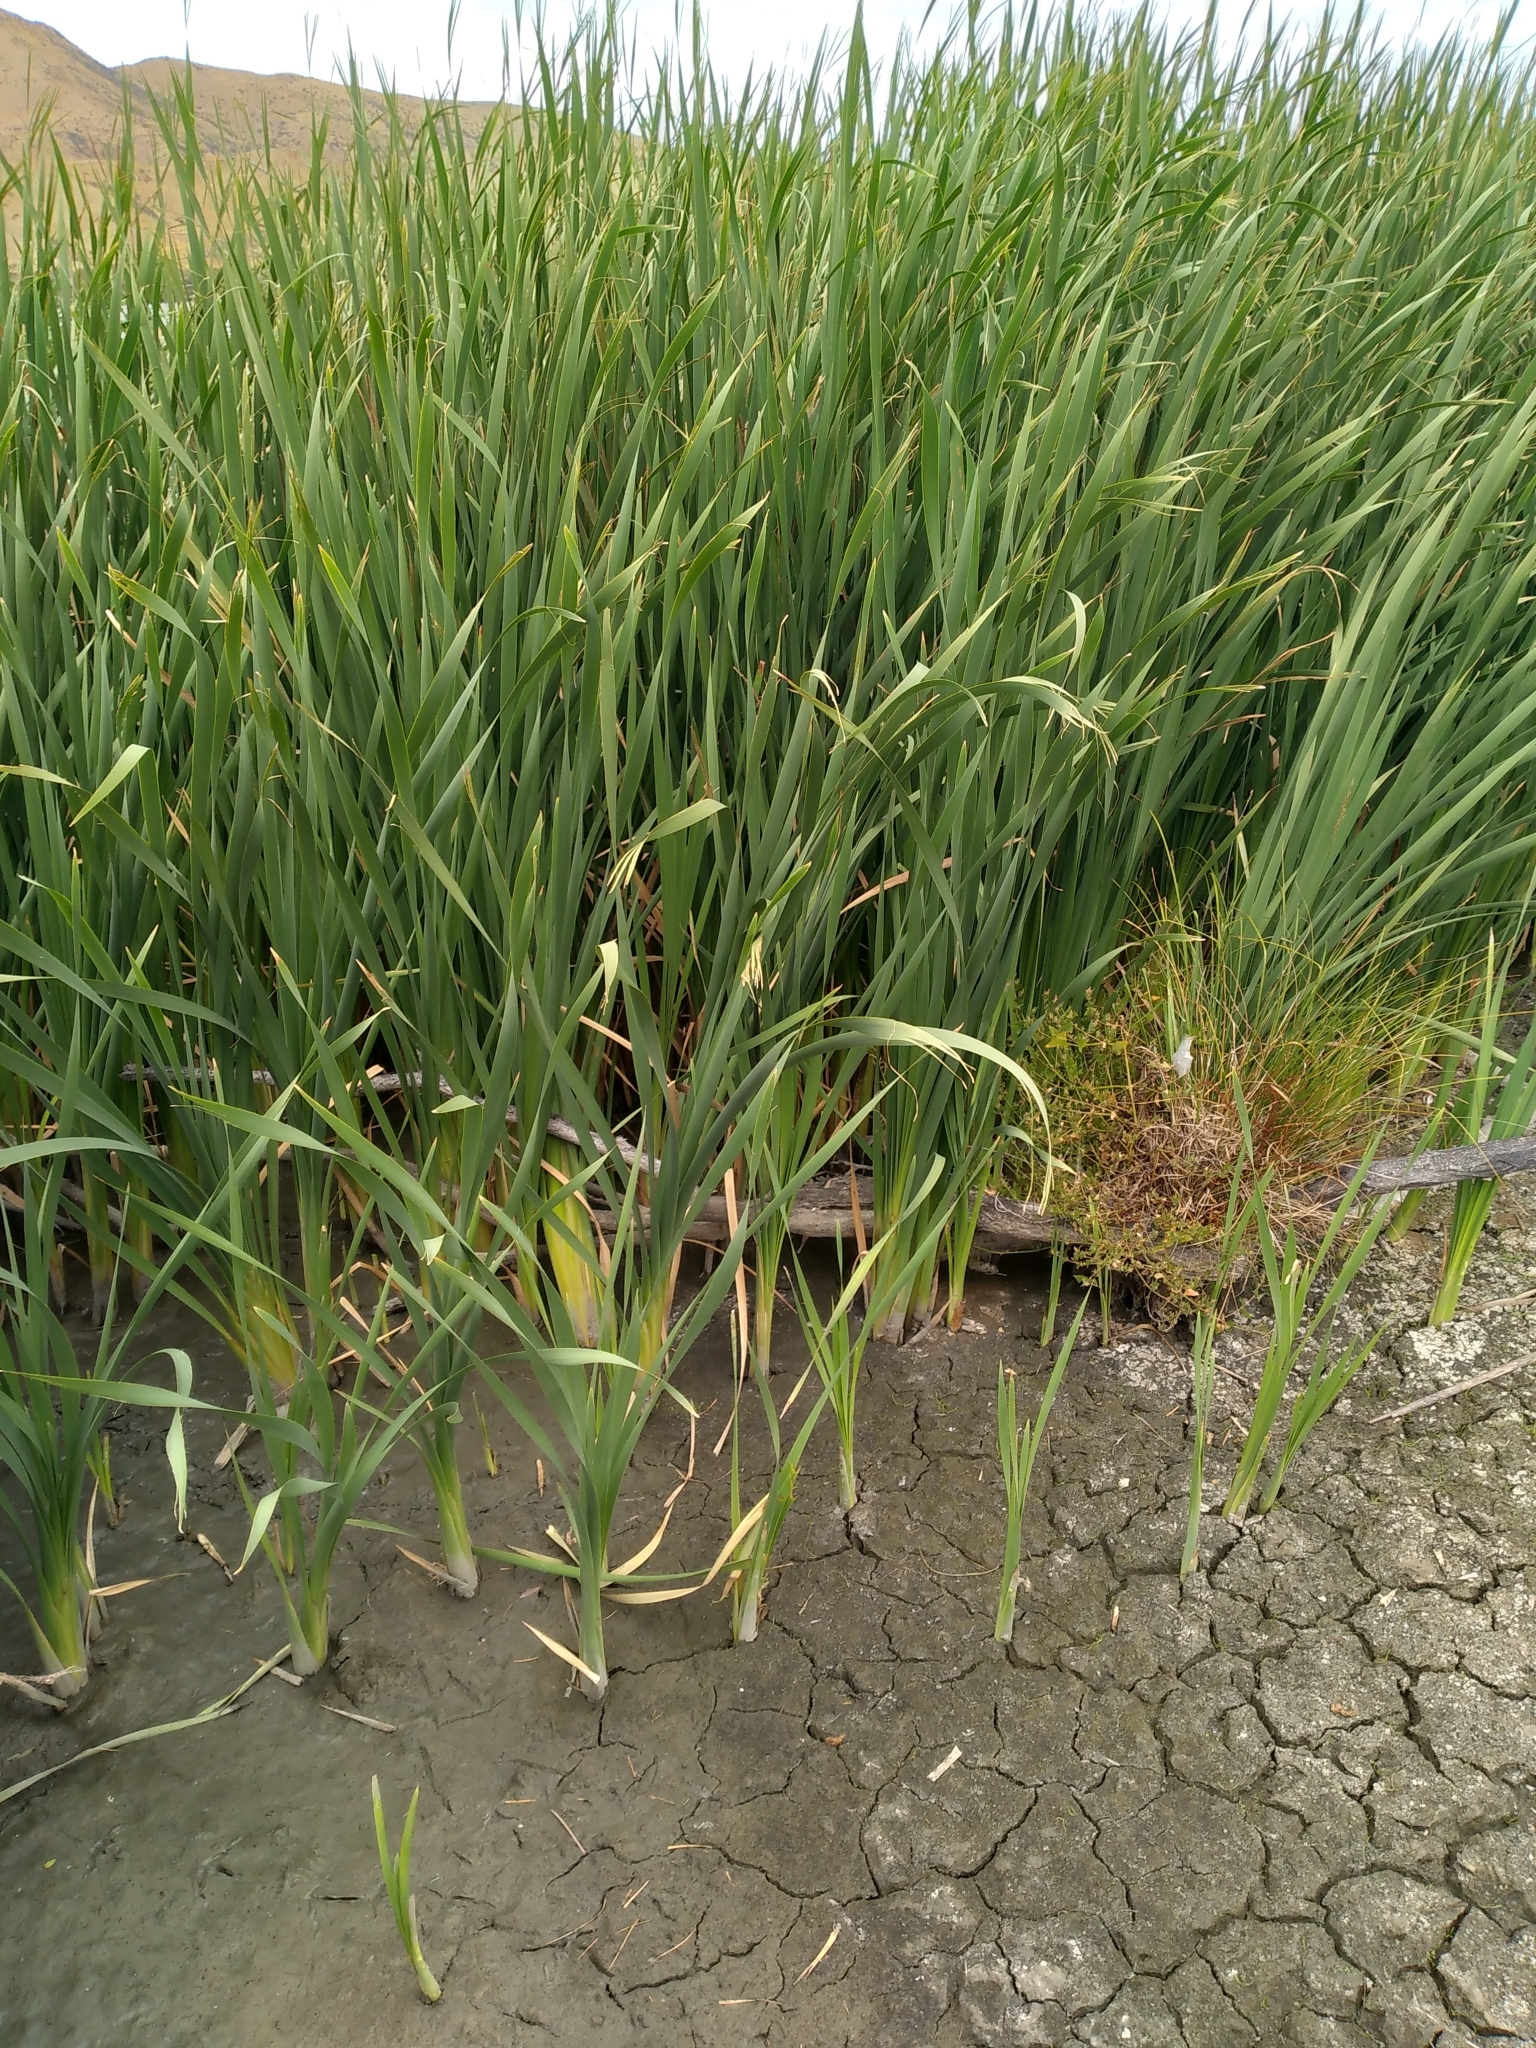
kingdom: Plantae
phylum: Tracheophyta
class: Liliopsida
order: Poales
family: Typhaceae
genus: Typha
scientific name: Typha orientalis
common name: Bullrush
